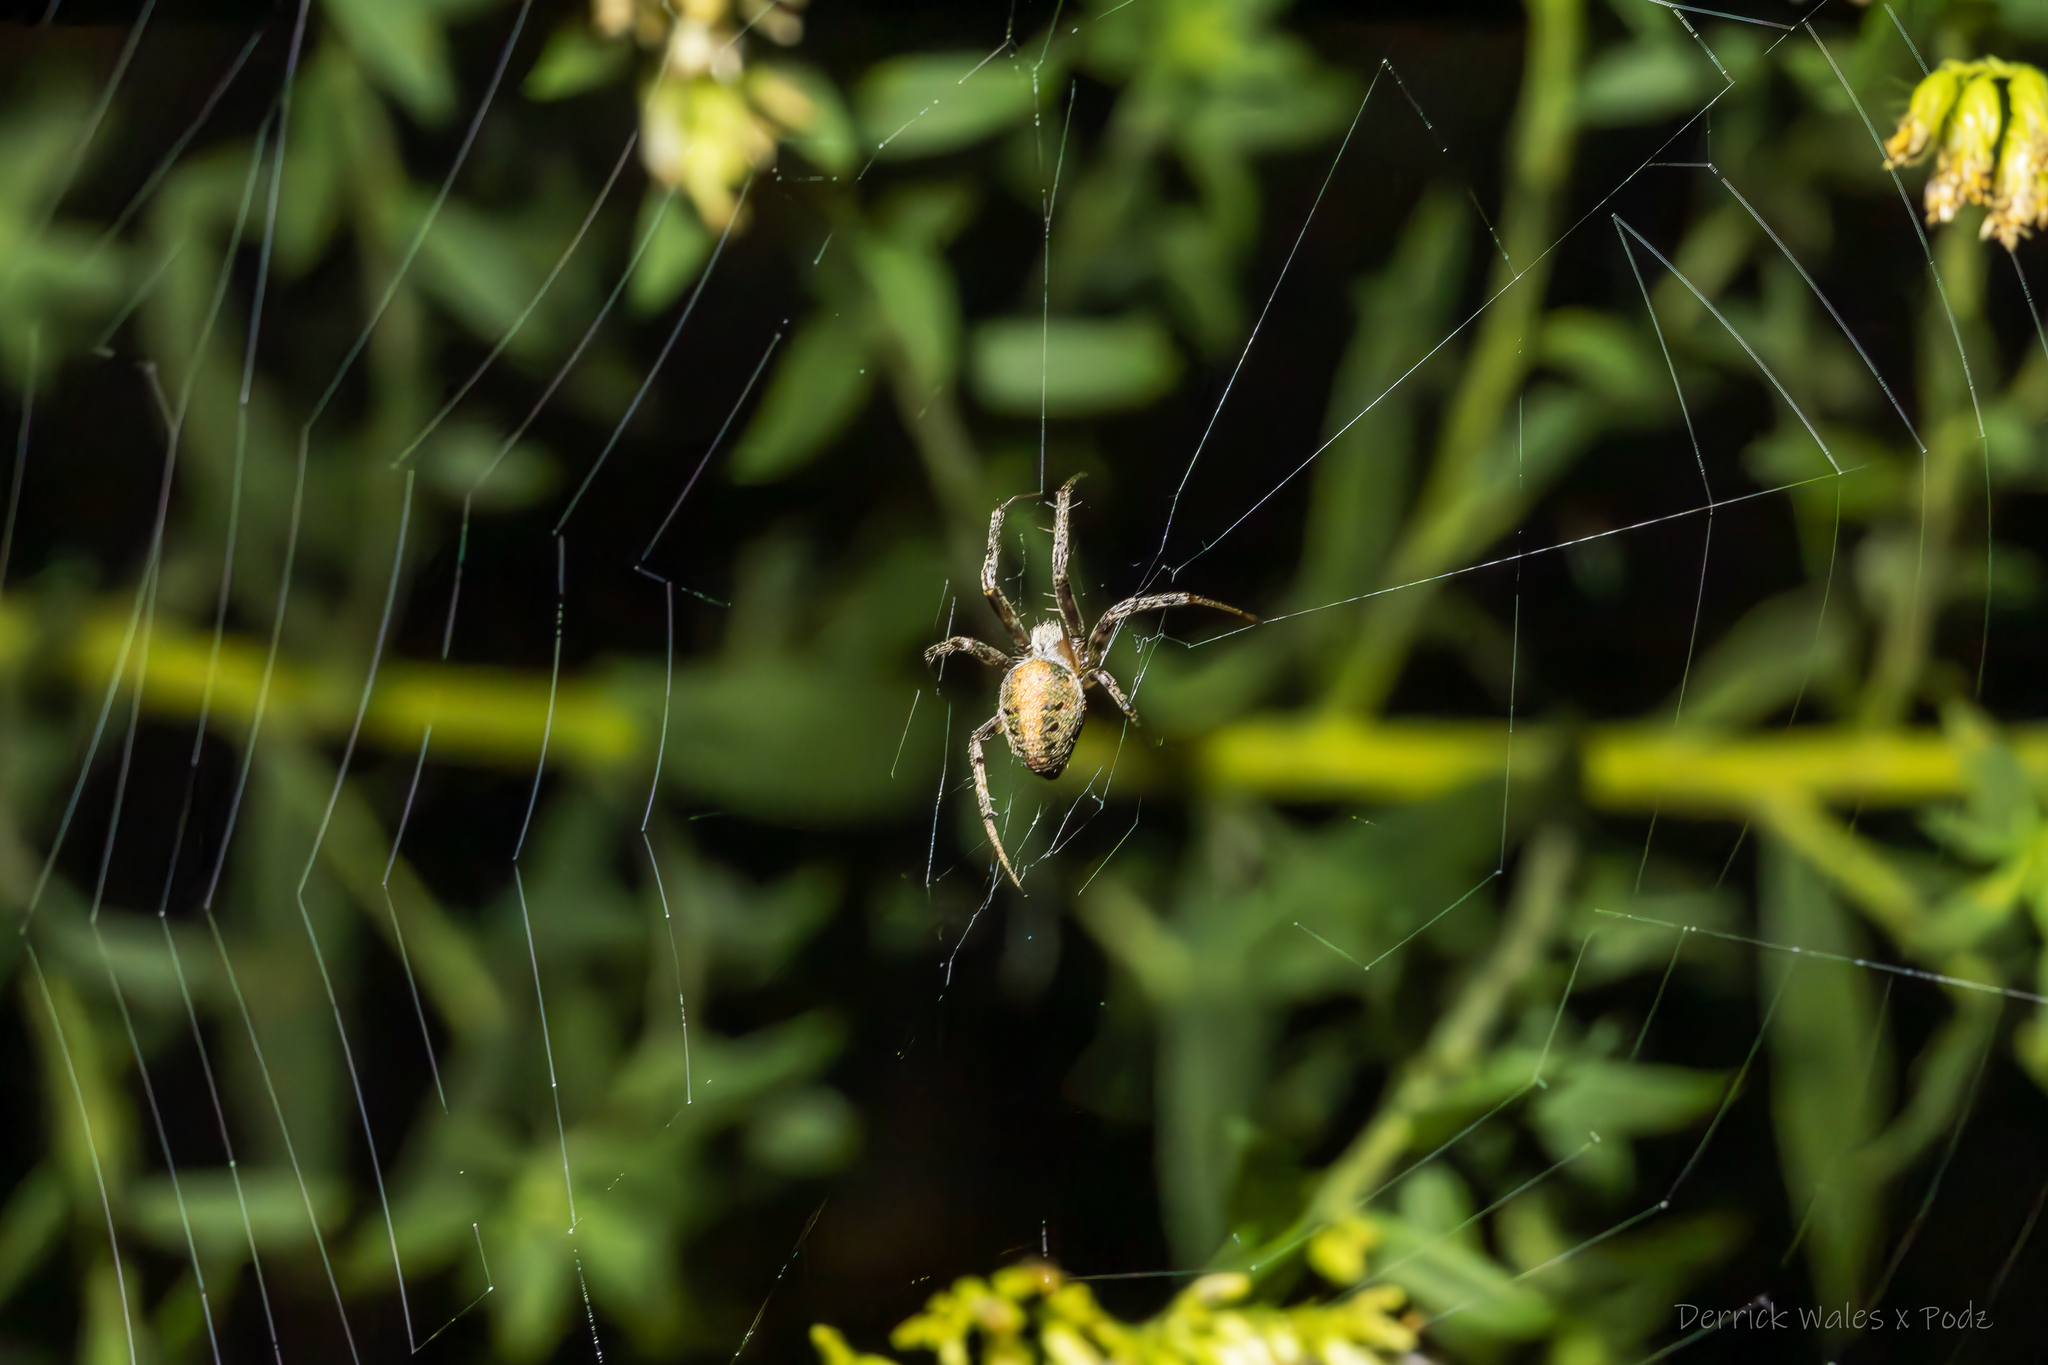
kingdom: Animalia
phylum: Arthropoda
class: Arachnida
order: Araneae
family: Araneidae
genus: Neoscona
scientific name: Neoscona arabesca
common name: Orb weavers
